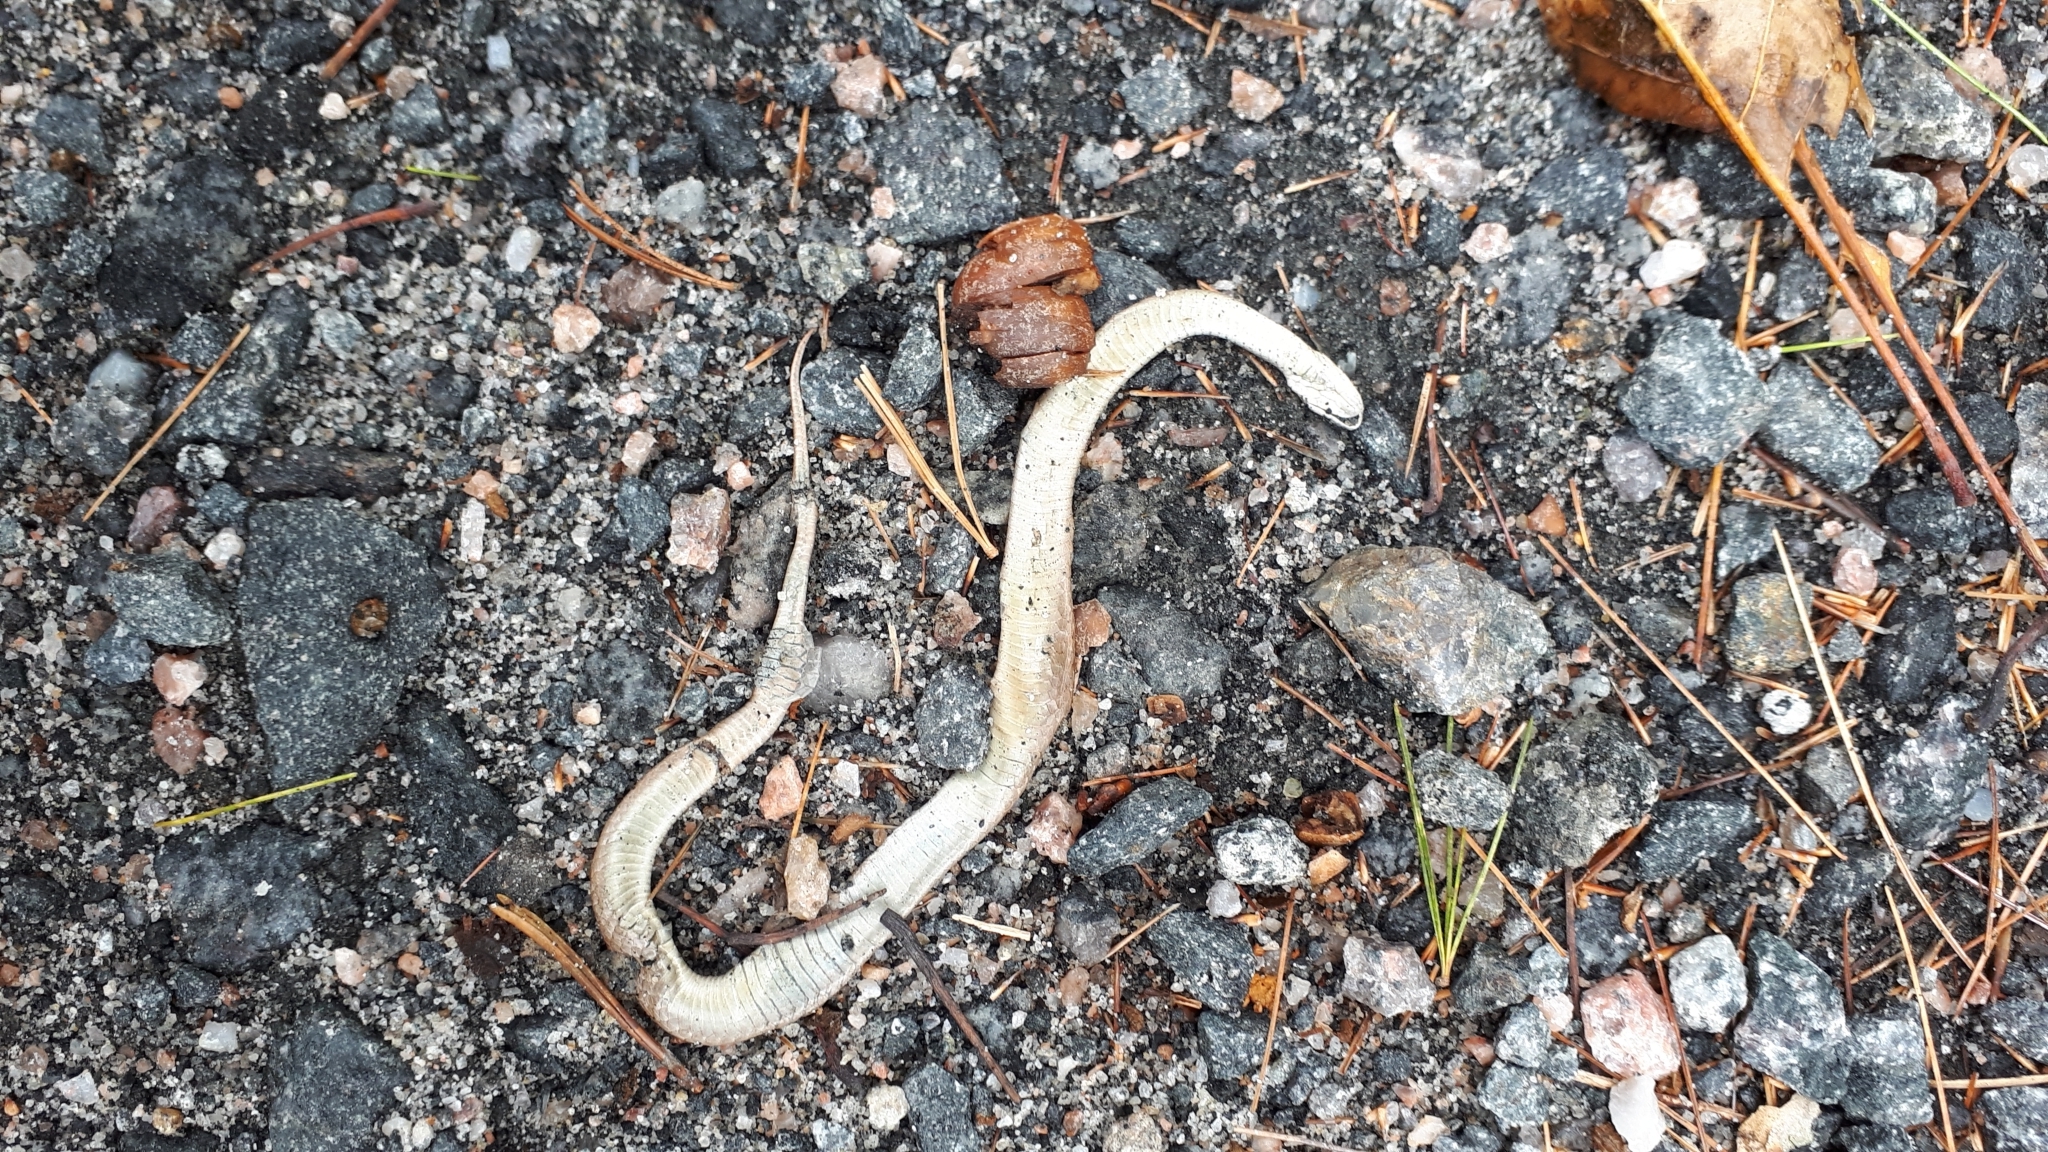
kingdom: Animalia
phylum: Chordata
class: Squamata
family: Colubridae
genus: Storeria
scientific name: Storeria dekayi
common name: (dekay’s) brown snake
